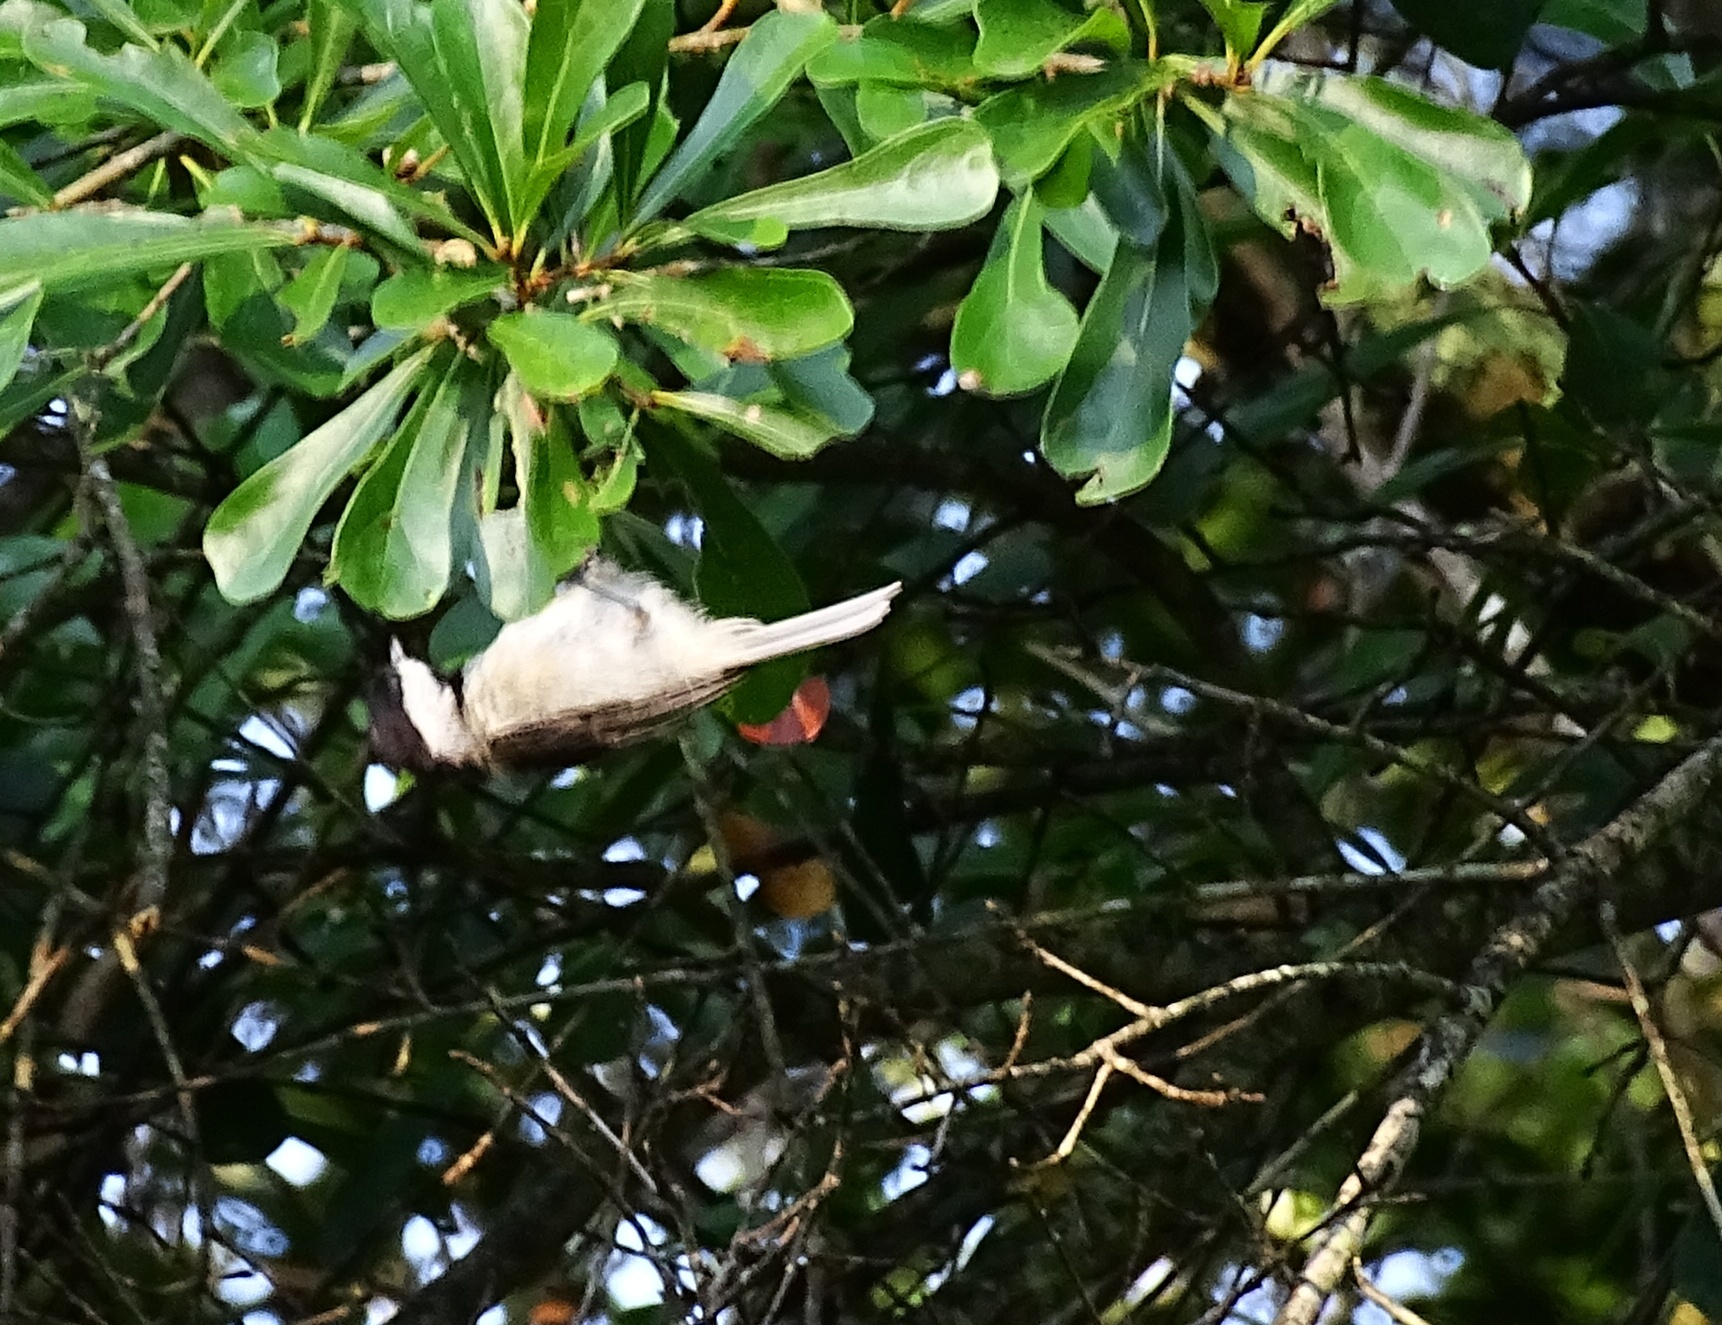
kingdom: Animalia
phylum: Chordata
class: Aves
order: Passeriformes
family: Paridae
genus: Poecile
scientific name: Poecile carolinensis
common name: Carolina chickadee
